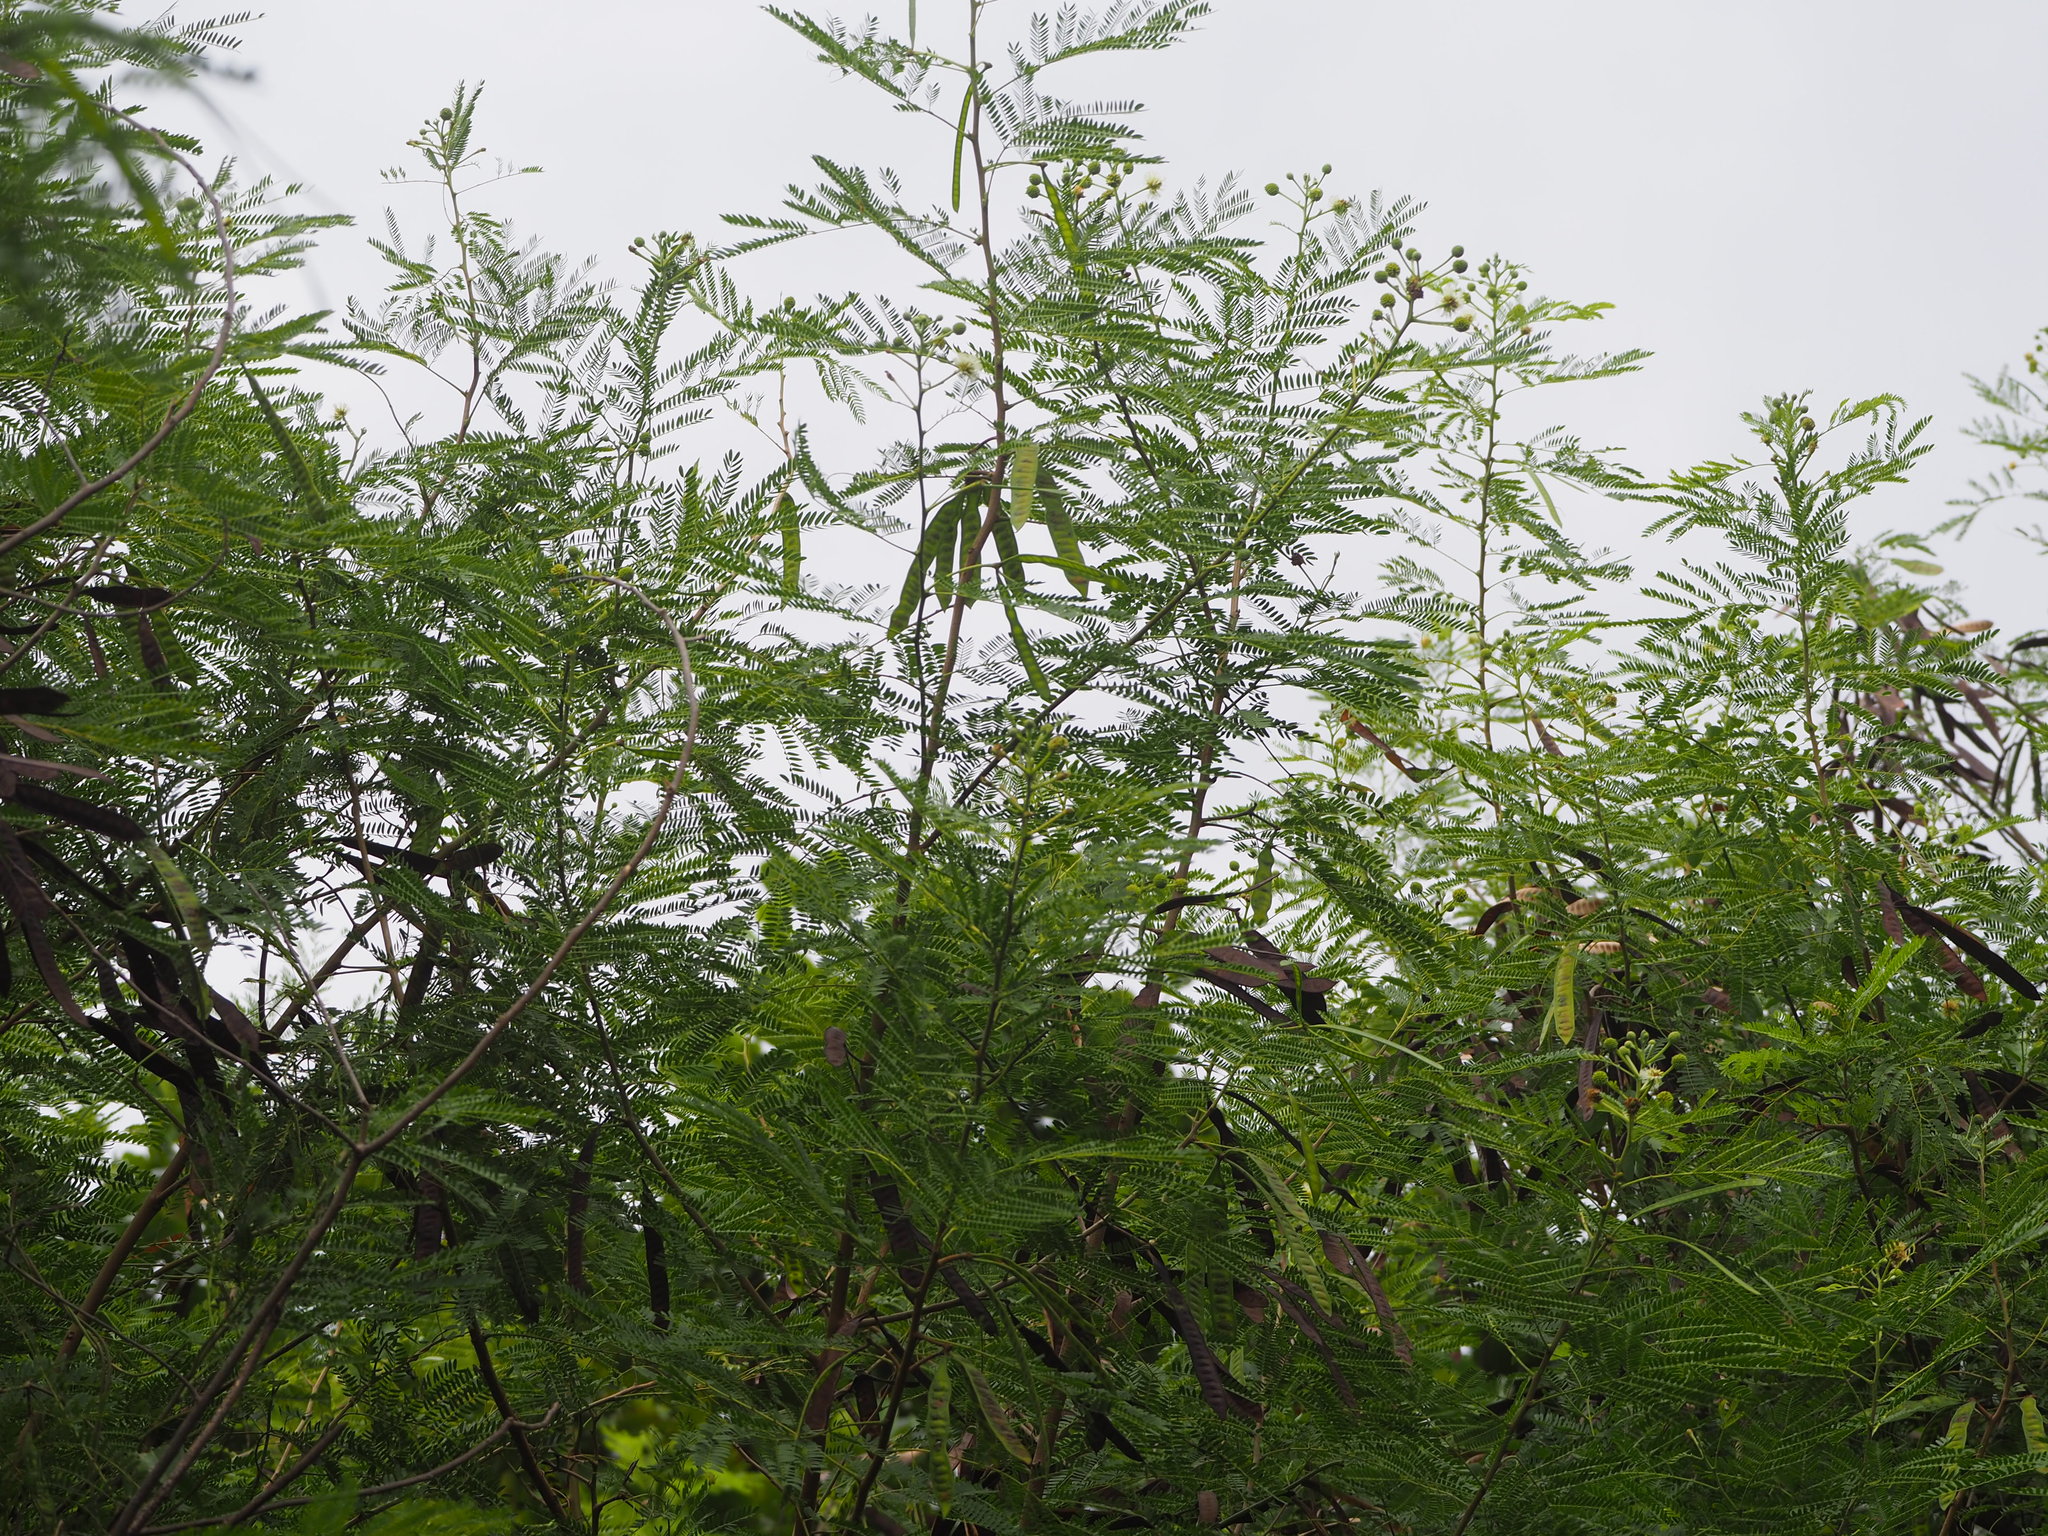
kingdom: Plantae
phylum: Tracheophyta
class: Magnoliopsida
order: Fabales
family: Fabaceae
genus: Leucaena
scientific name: Leucaena leucocephala
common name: White leadtree
